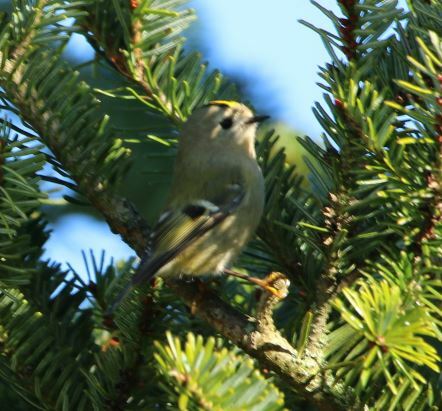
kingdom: Animalia
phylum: Chordata
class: Aves
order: Passeriformes
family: Regulidae
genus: Regulus
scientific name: Regulus regulus
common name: Goldcrest
